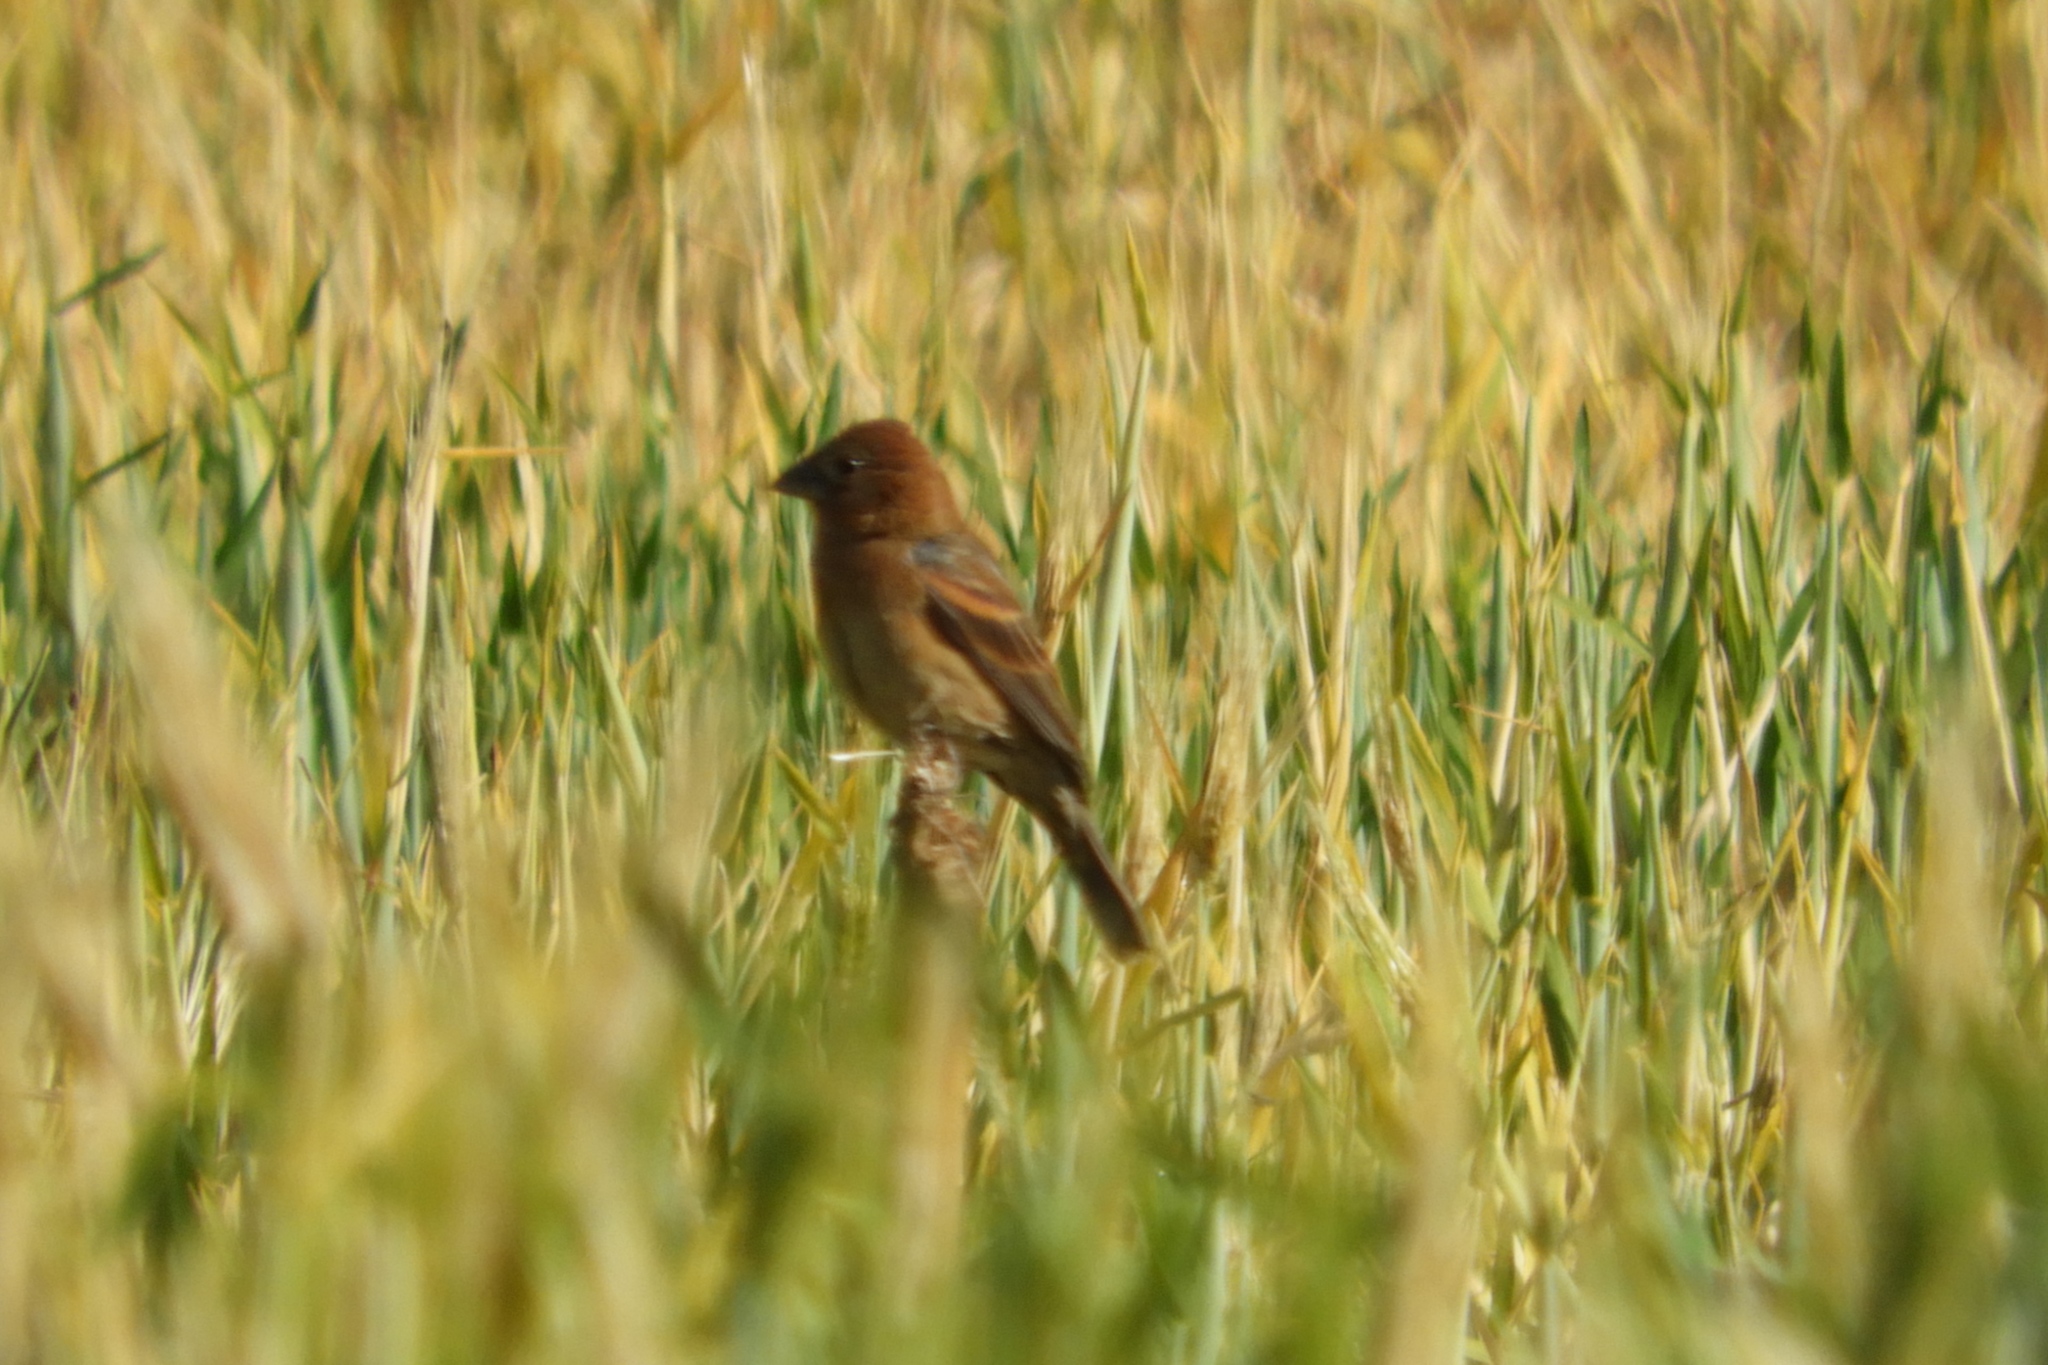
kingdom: Animalia
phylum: Chordata
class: Aves
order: Passeriformes
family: Cardinalidae
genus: Passerina
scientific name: Passerina caerulea
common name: Blue grosbeak
